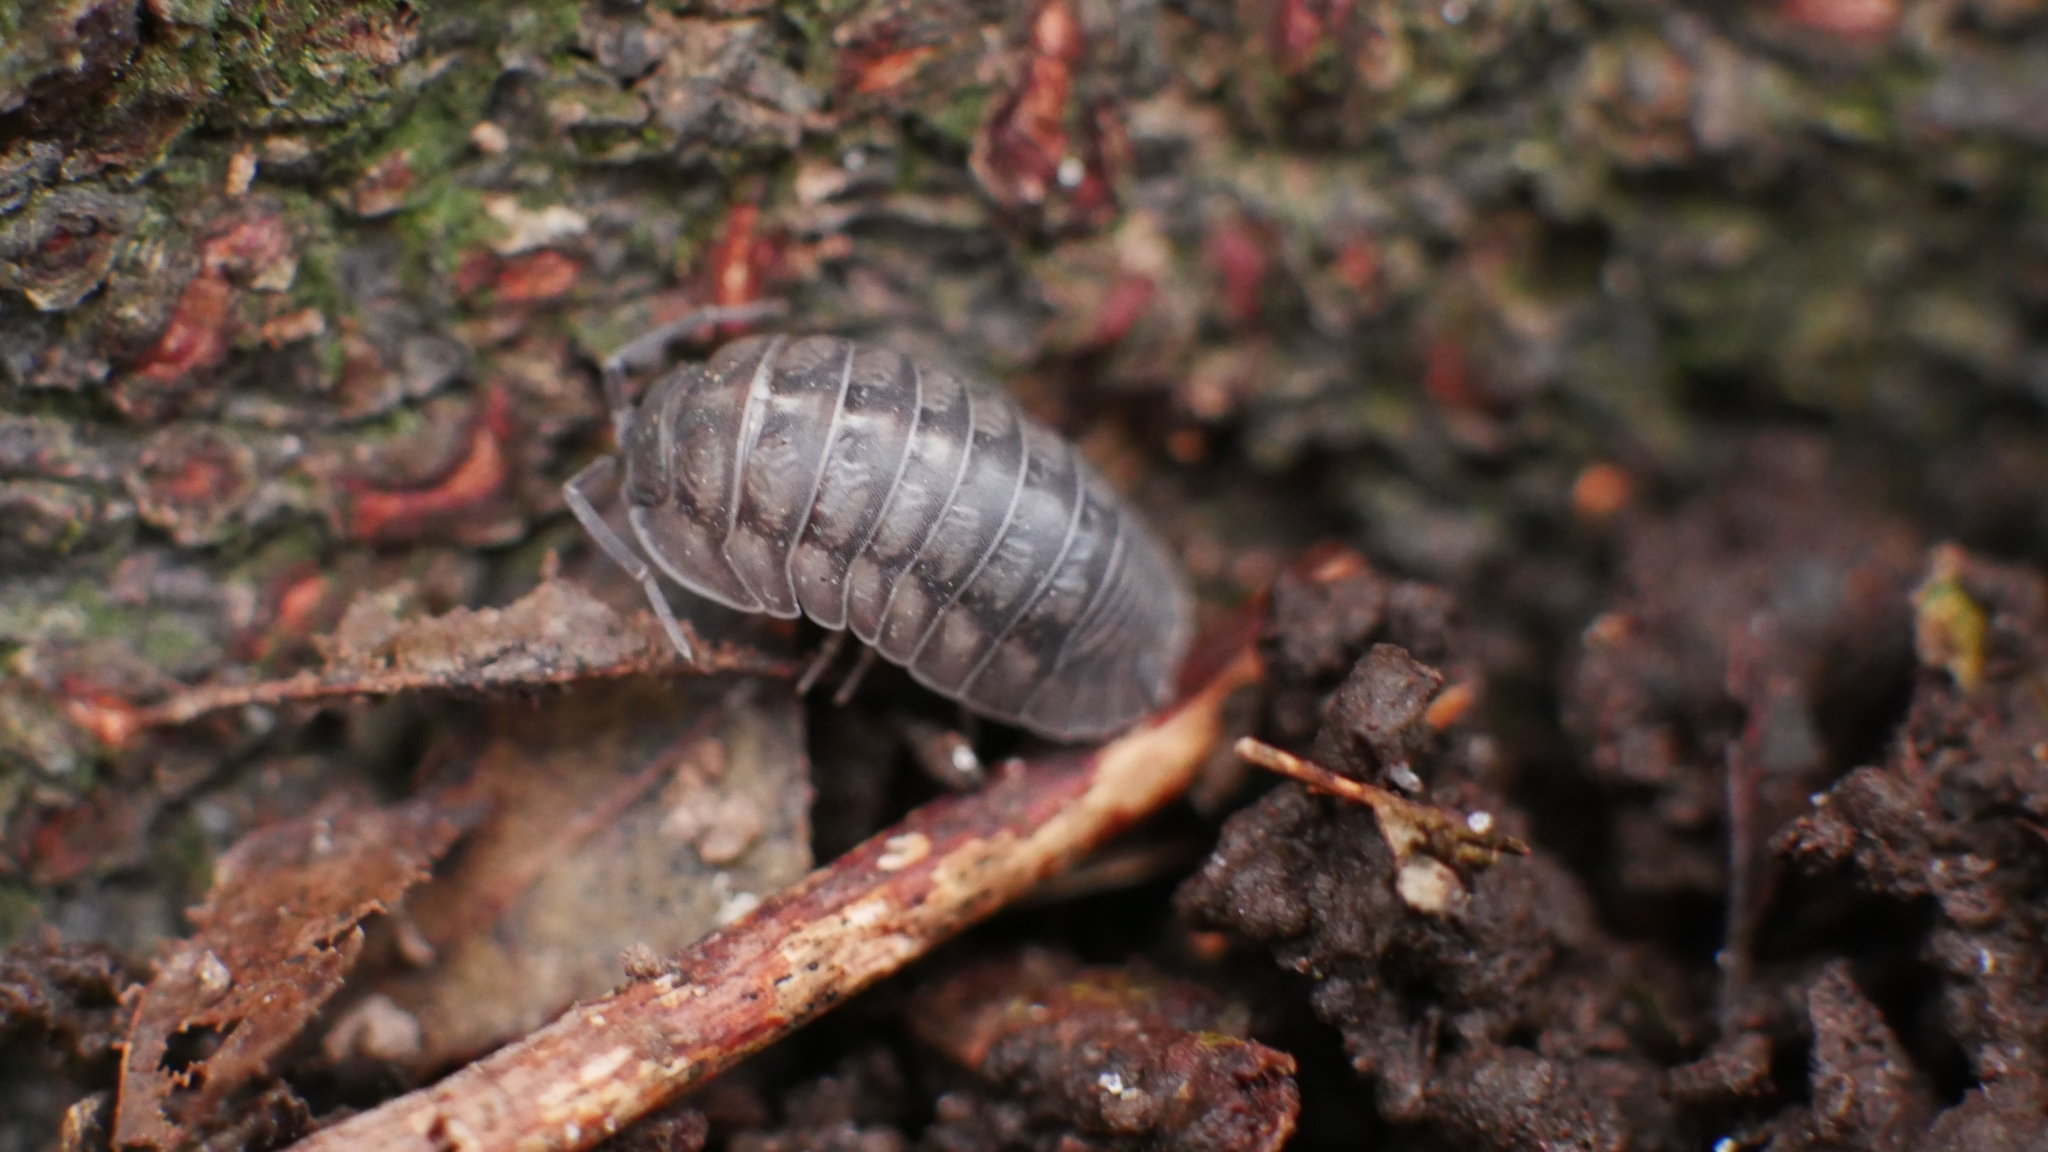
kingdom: Animalia
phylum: Arthropoda
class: Malacostraca
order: Isopoda
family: Armadillidiidae
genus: Armadillidium
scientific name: Armadillidium nasatum
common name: Isopod
